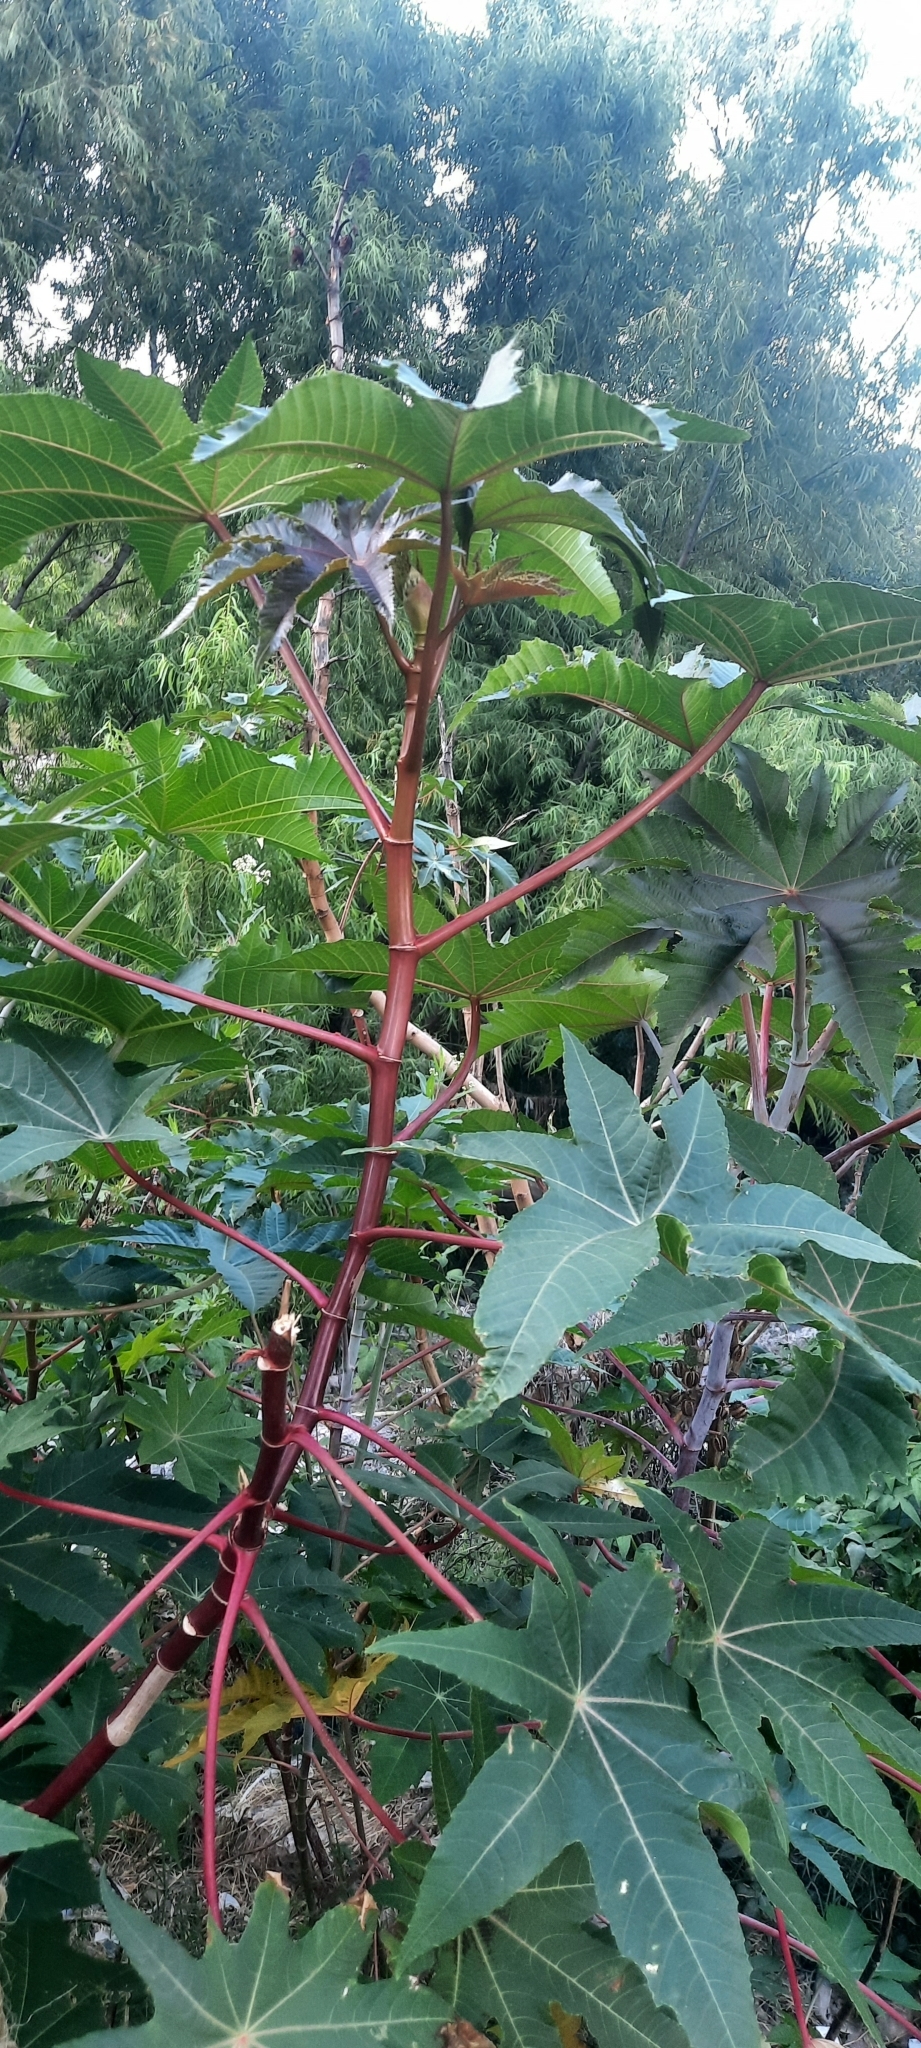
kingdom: Plantae
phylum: Tracheophyta
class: Magnoliopsida
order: Malpighiales
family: Euphorbiaceae
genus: Ricinus
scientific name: Ricinus communis
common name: Castor-oil-plant
